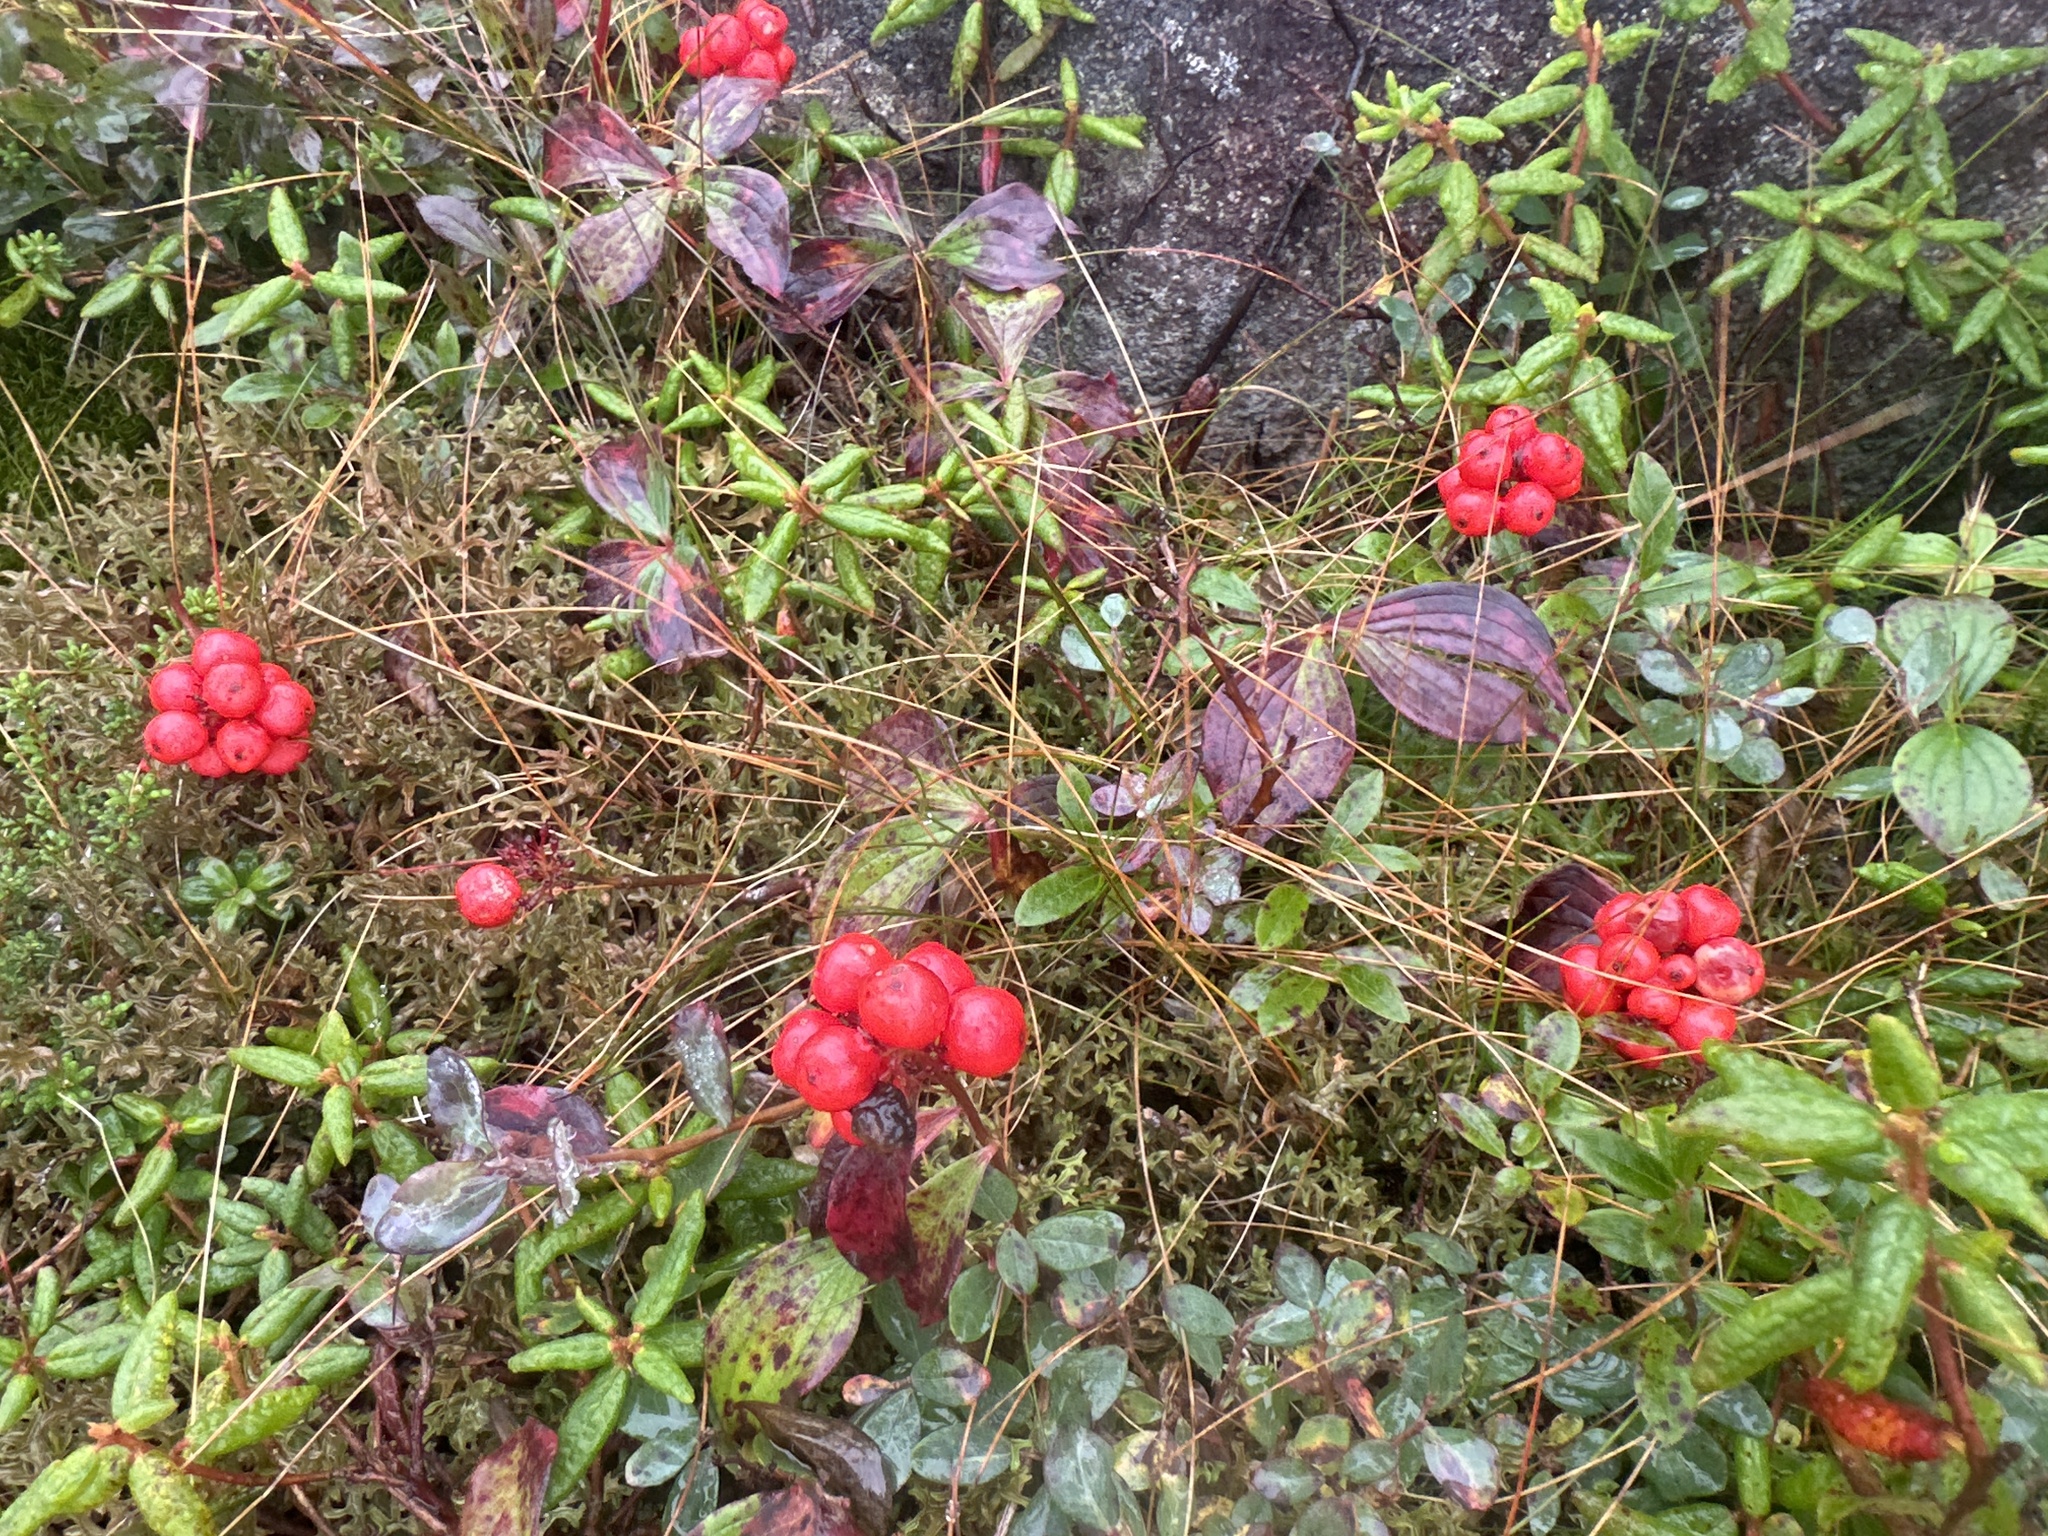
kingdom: Plantae
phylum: Tracheophyta
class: Magnoliopsida
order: Cornales
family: Cornaceae
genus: Cornus
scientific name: Cornus canadensis
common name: Creeping dogwood
